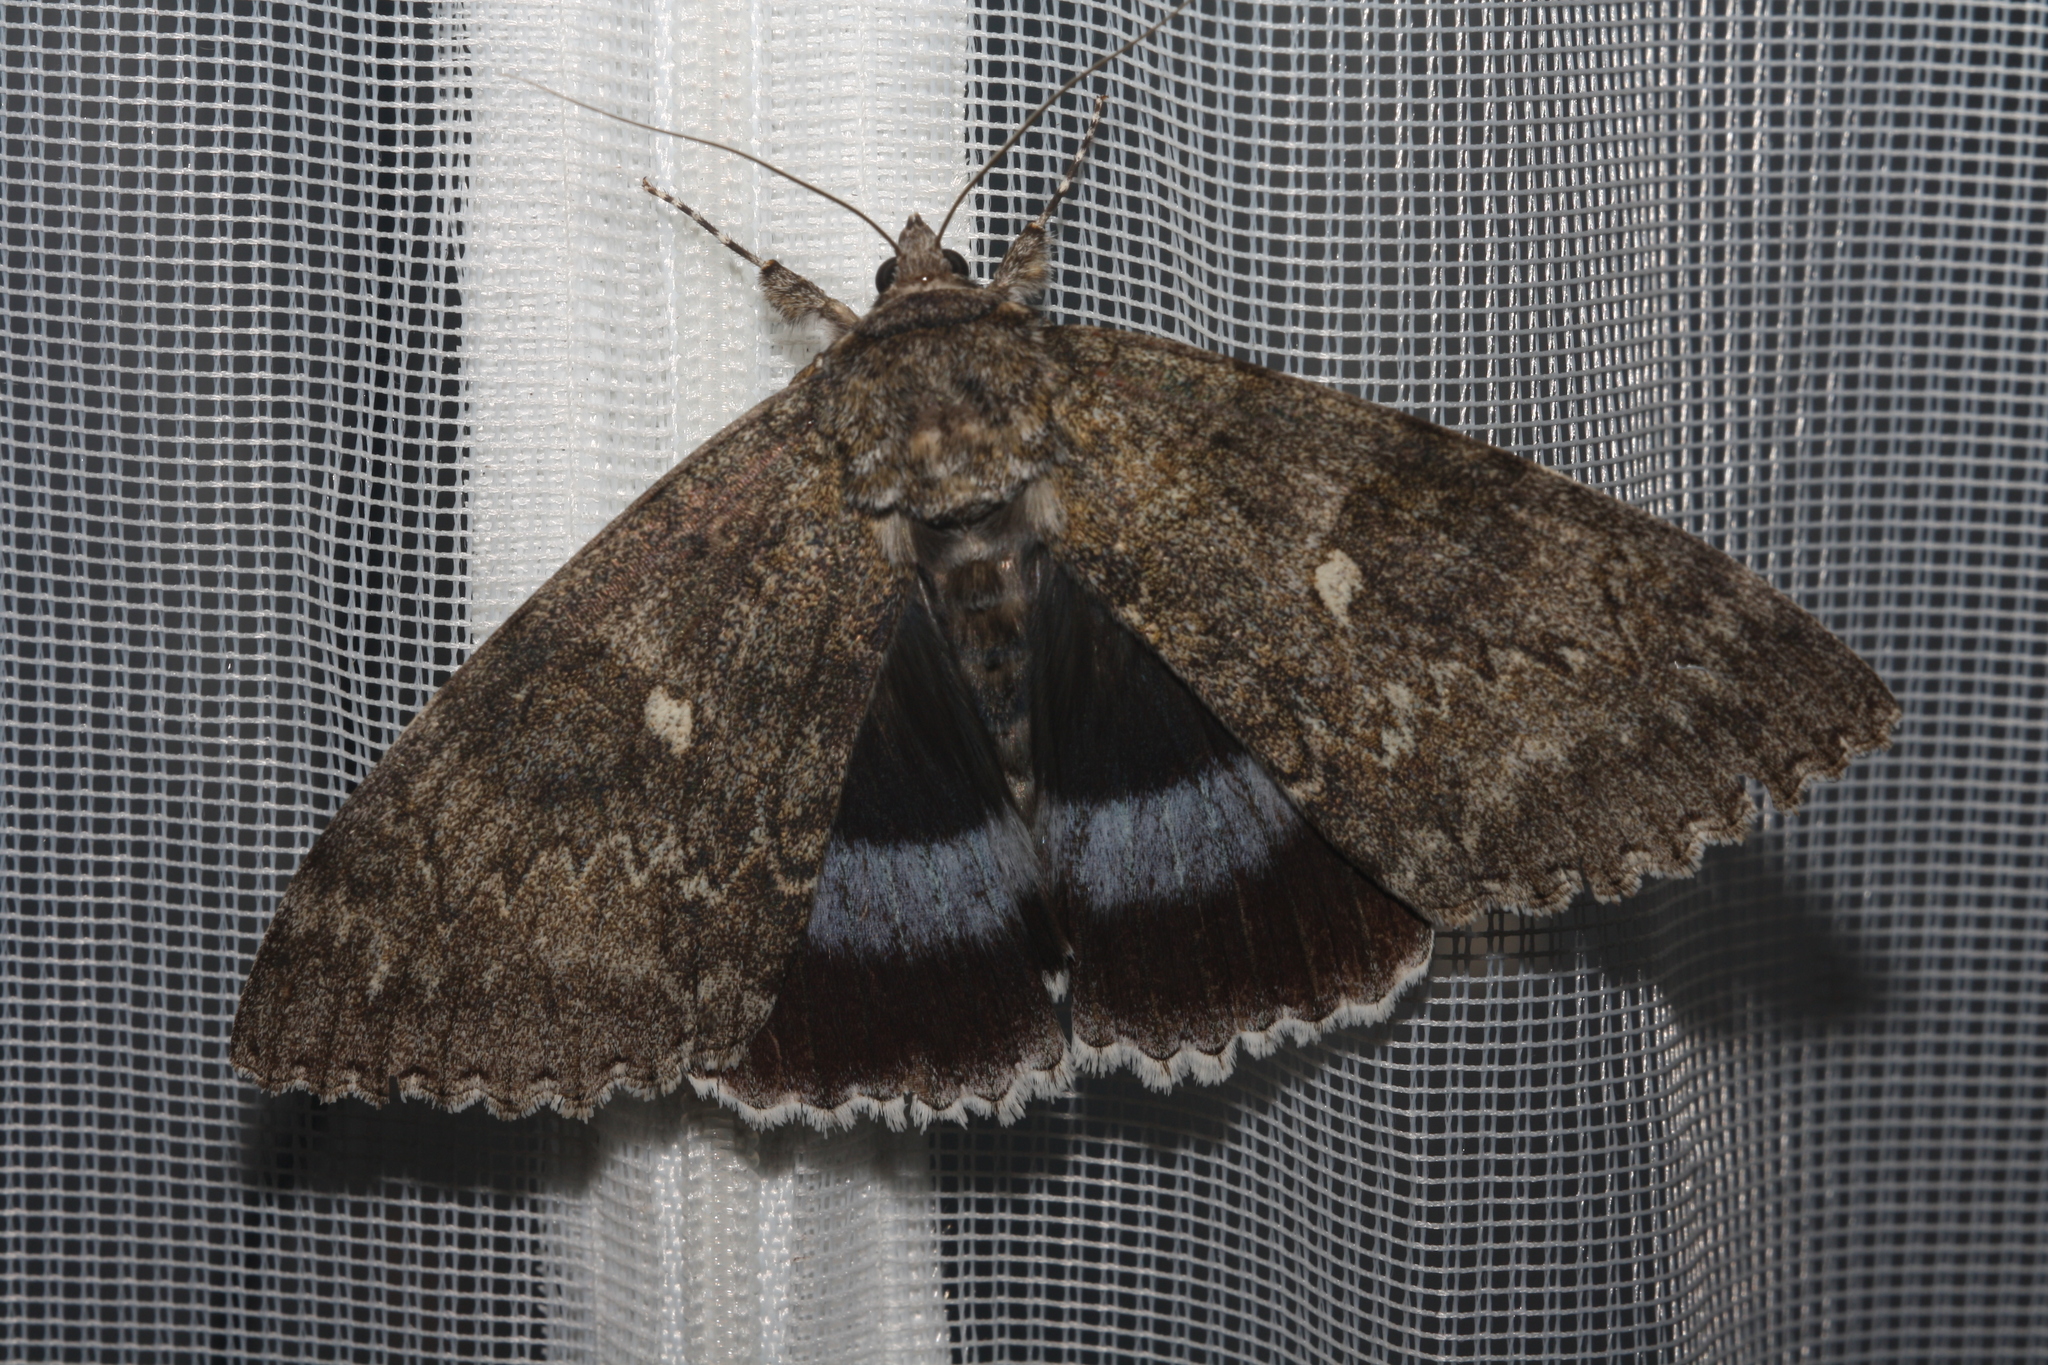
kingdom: Animalia
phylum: Arthropoda
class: Insecta
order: Lepidoptera
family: Erebidae
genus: Catocala
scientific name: Catocala fraxini
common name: Clifden nonpareil
